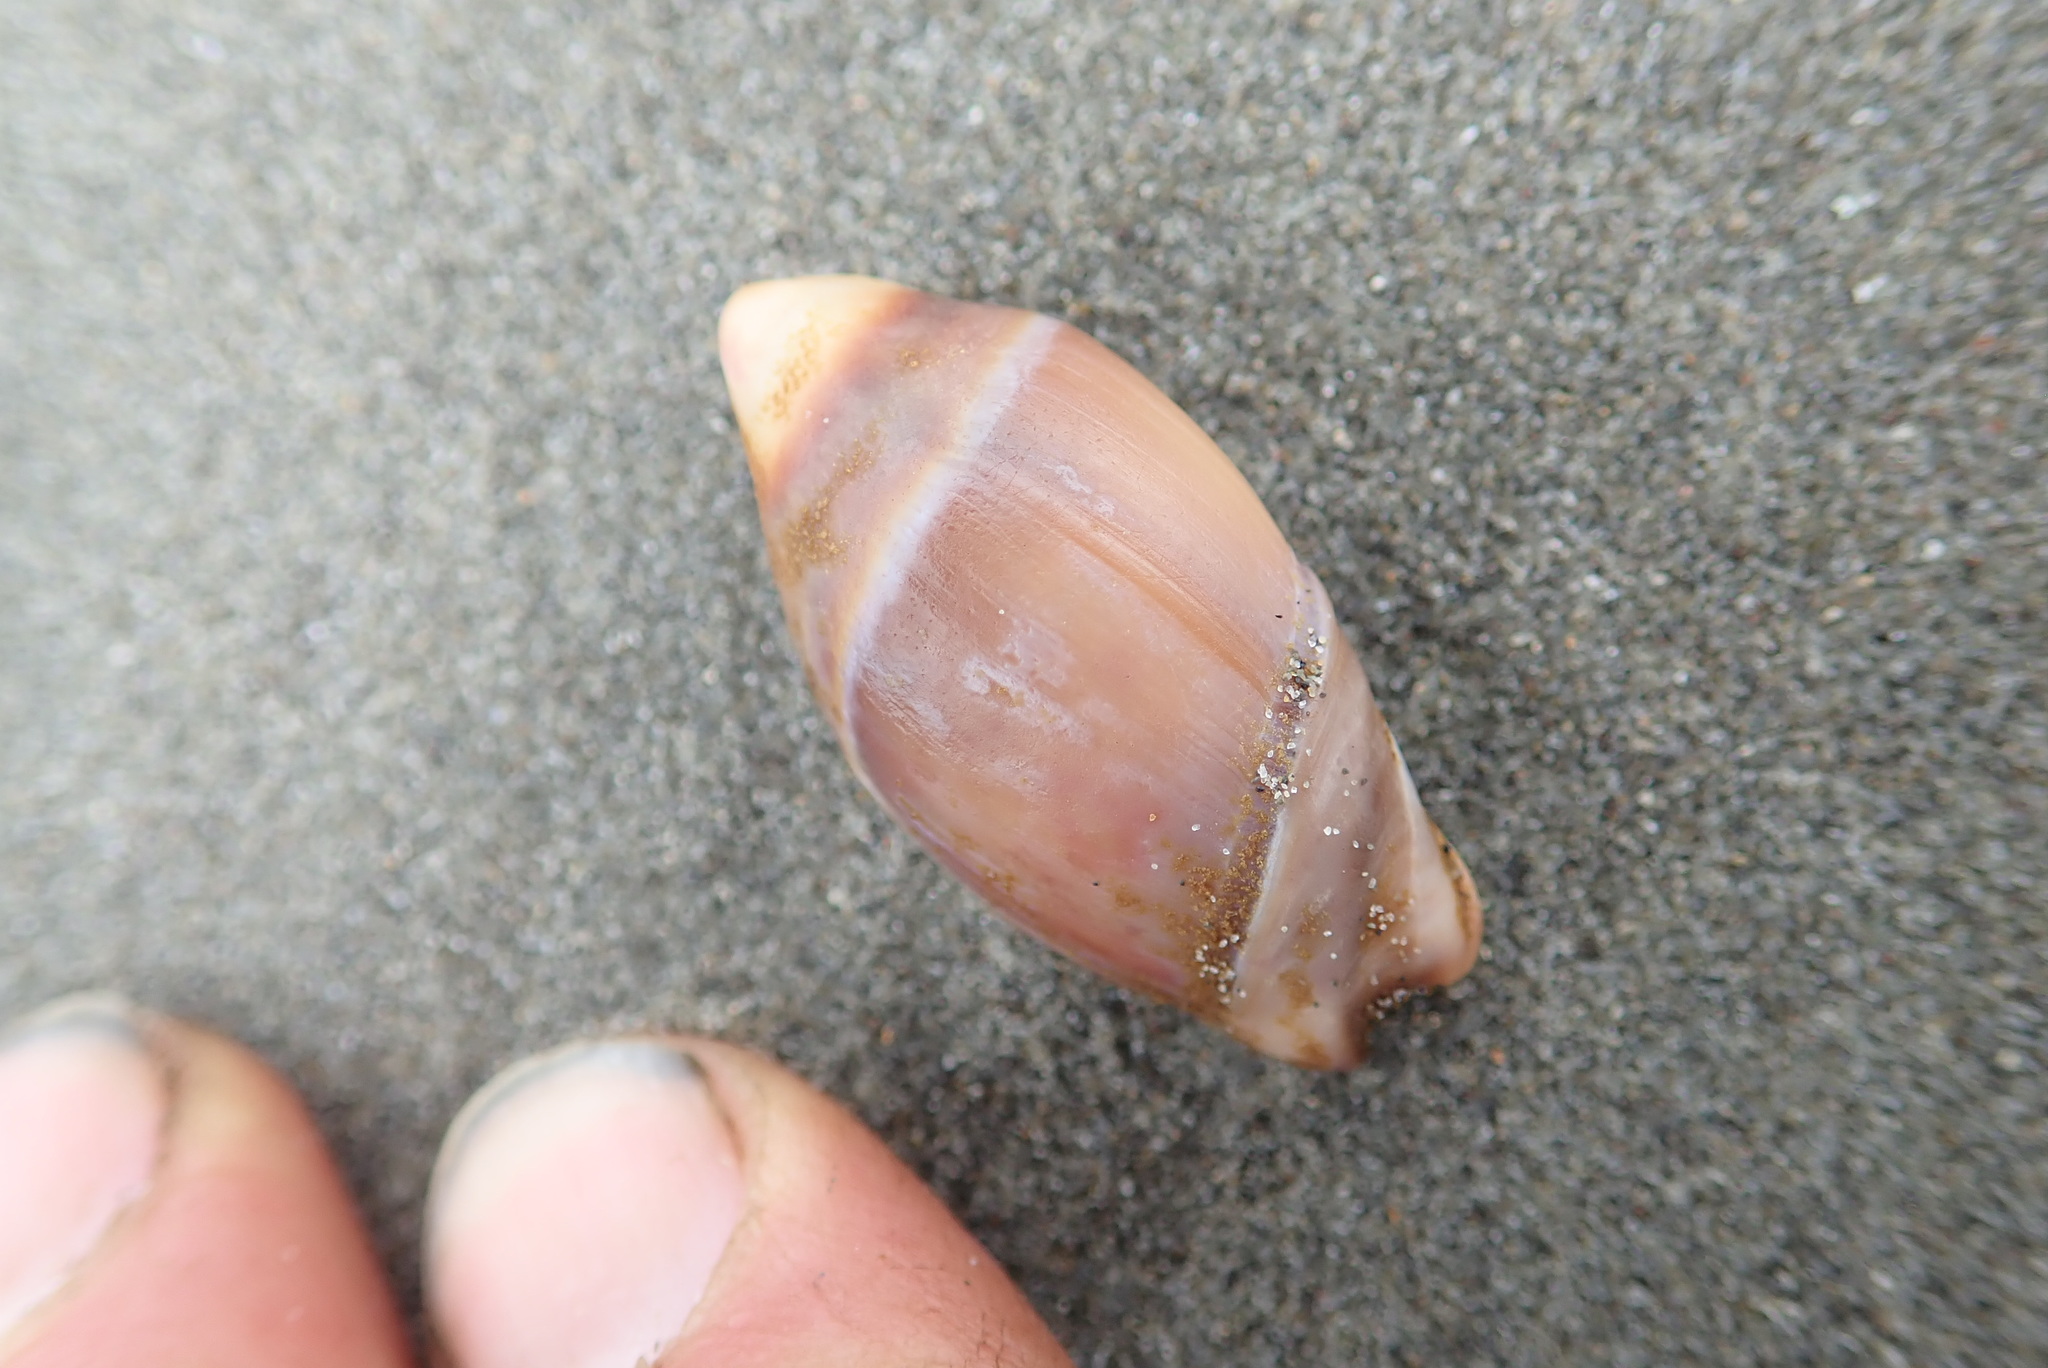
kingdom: Animalia
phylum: Mollusca
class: Gastropoda
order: Neogastropoda
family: Ancillariidae
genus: Amalda
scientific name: Amalda australis
